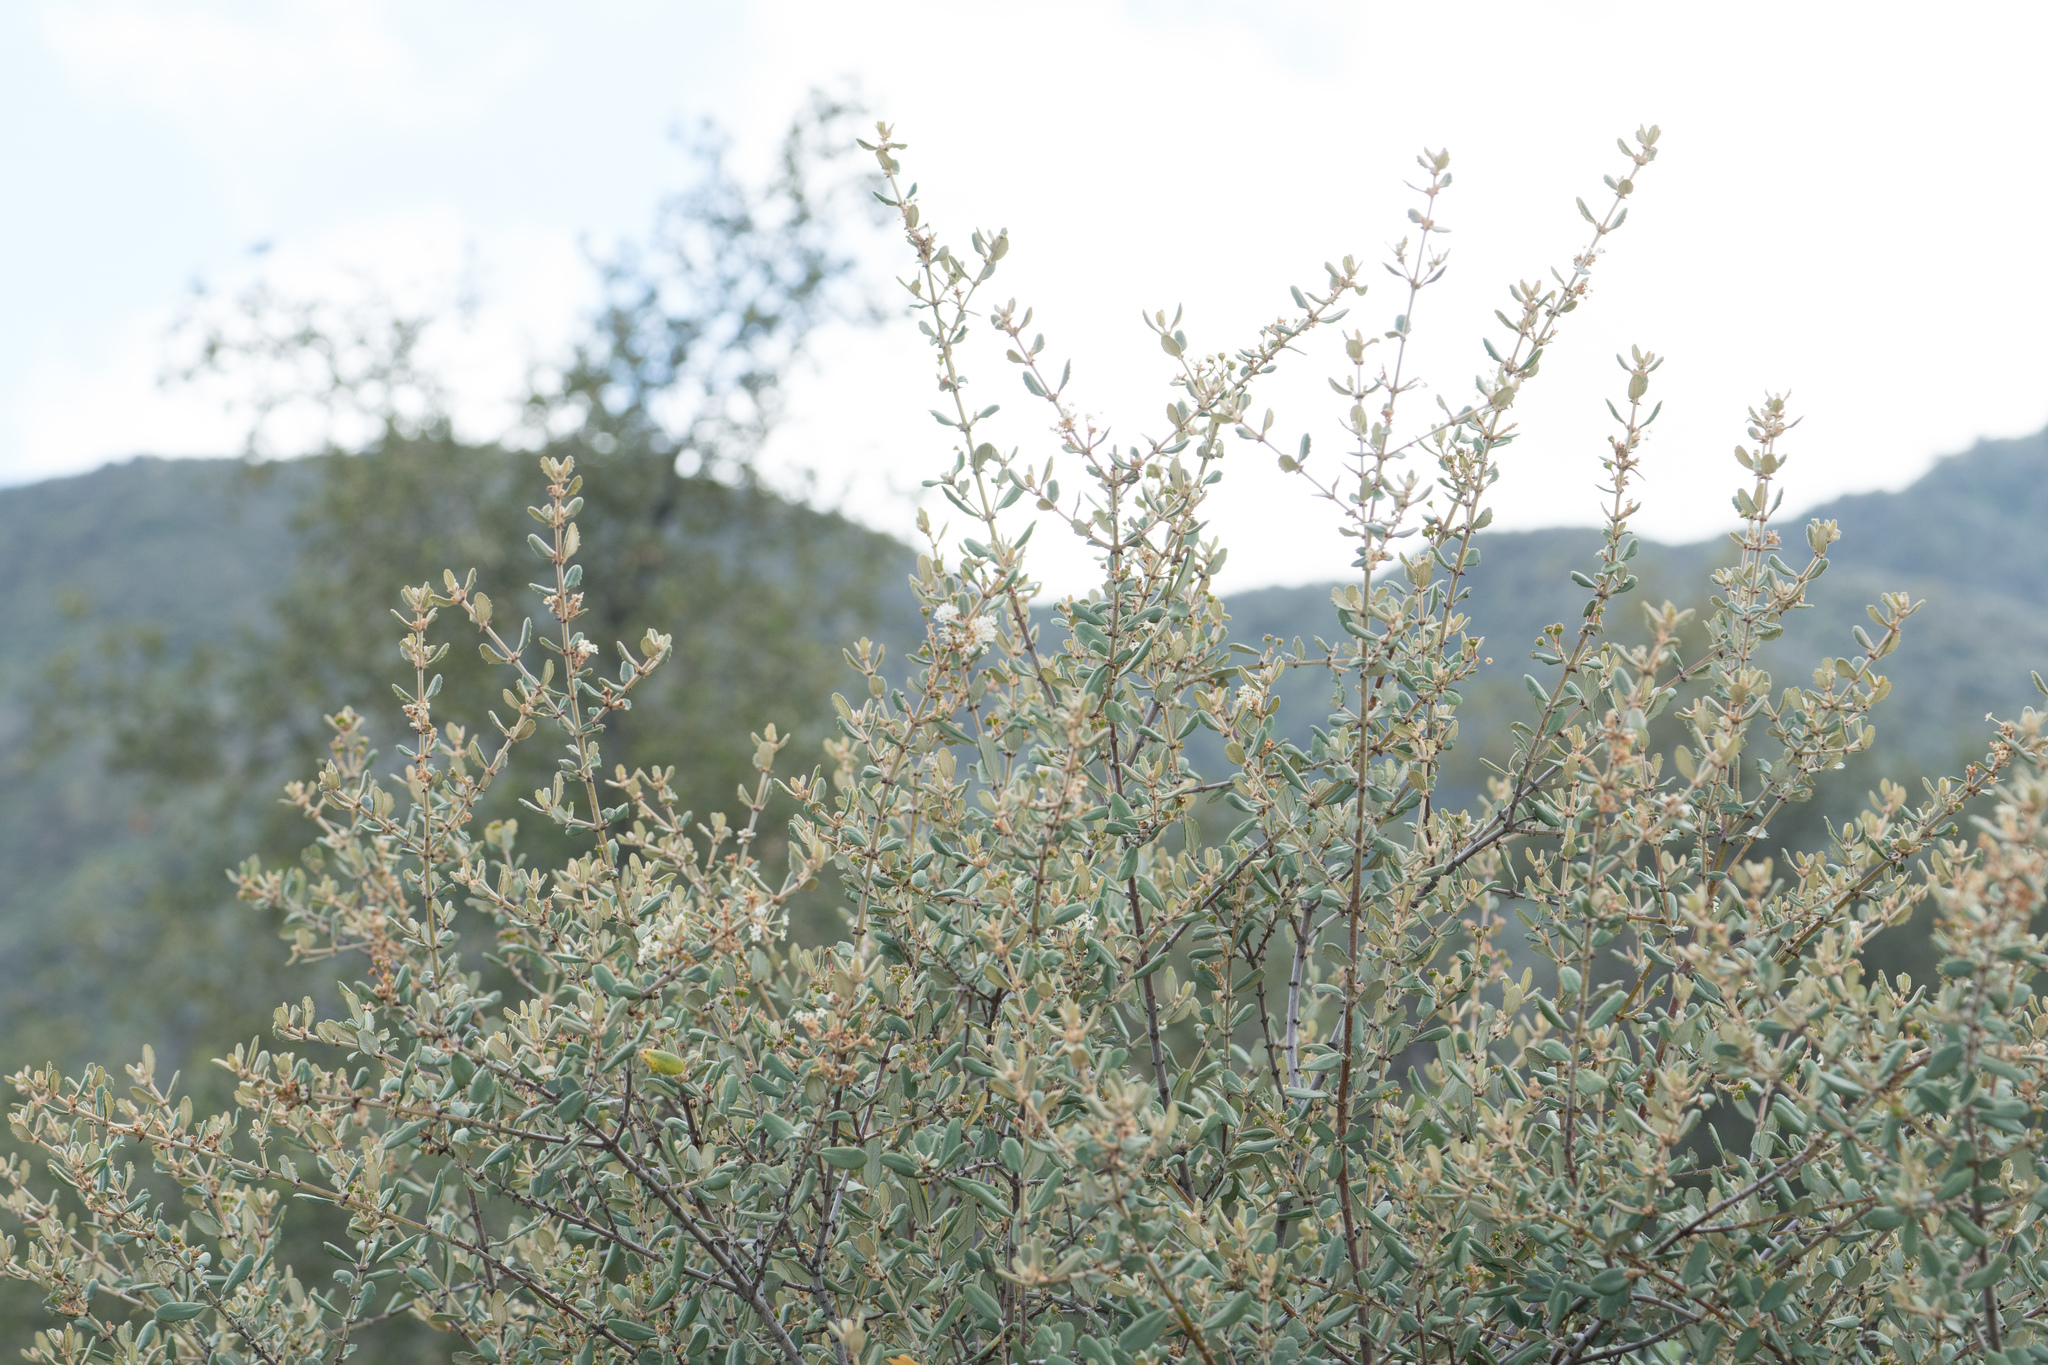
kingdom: Plantae
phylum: Tracheophyta
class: Magnoliopsida
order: Rosales
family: Rhamnaceae
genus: Ceanothus
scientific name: Ceanothus crassifolius
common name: Hoaryleaf ceanothus
